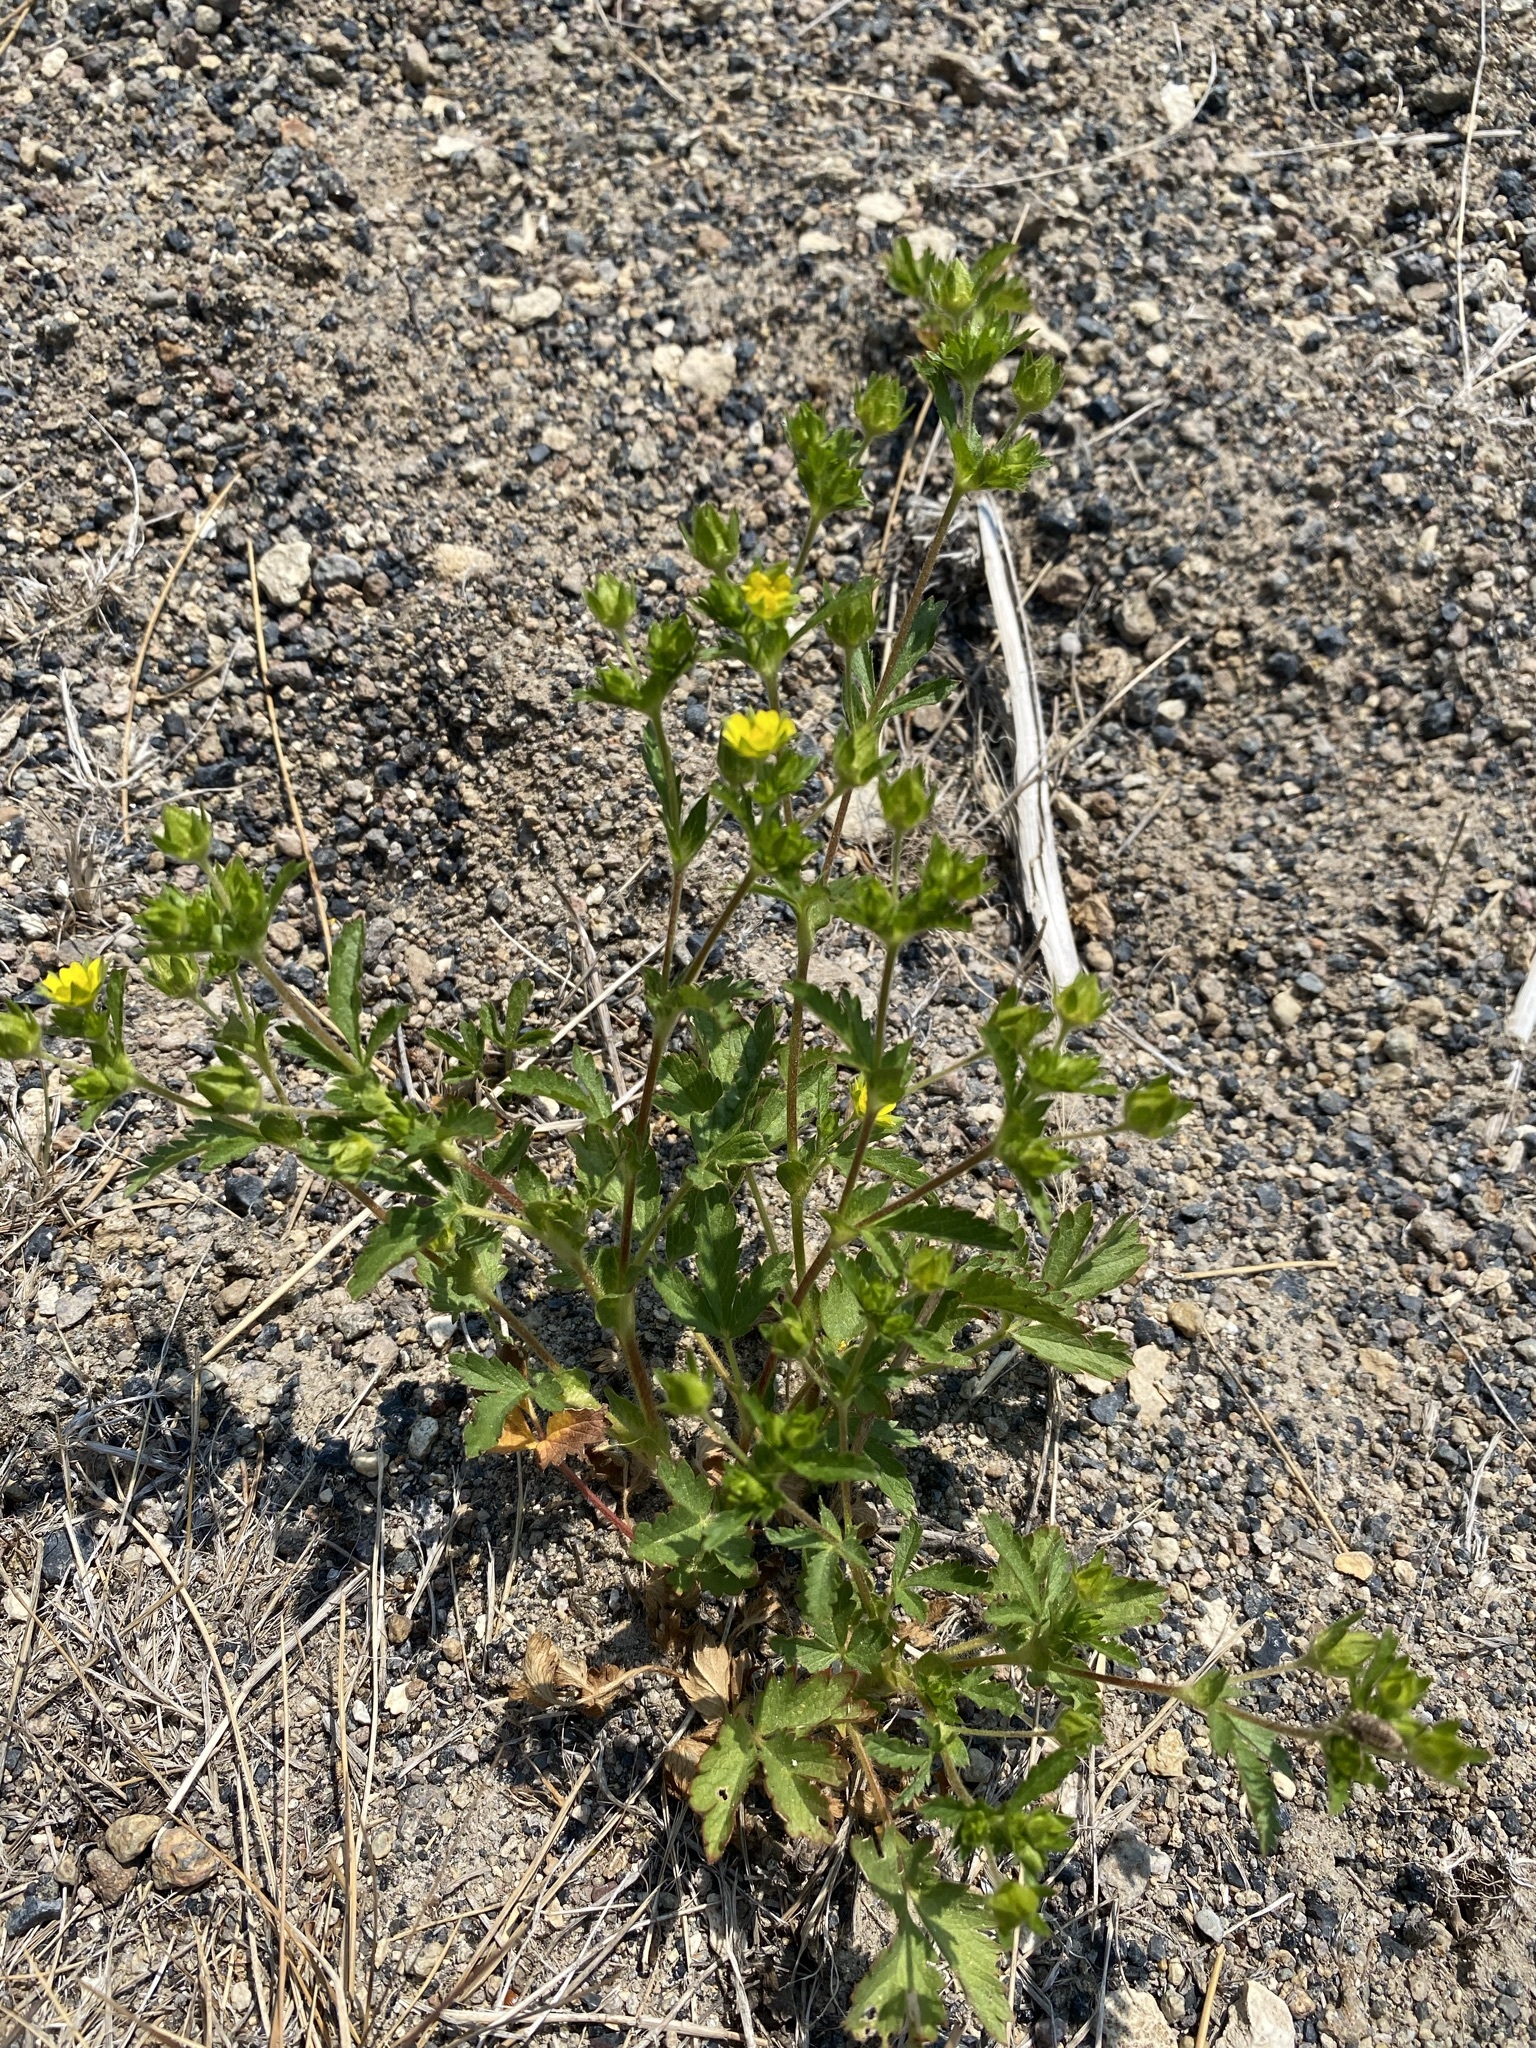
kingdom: Plantae
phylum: Tracheophyta
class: Magnoliopsida
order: Rosales
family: Rosaceae
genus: Potentilla
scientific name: Potentilla norvegica
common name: Ternate-leaved cinquefoil
